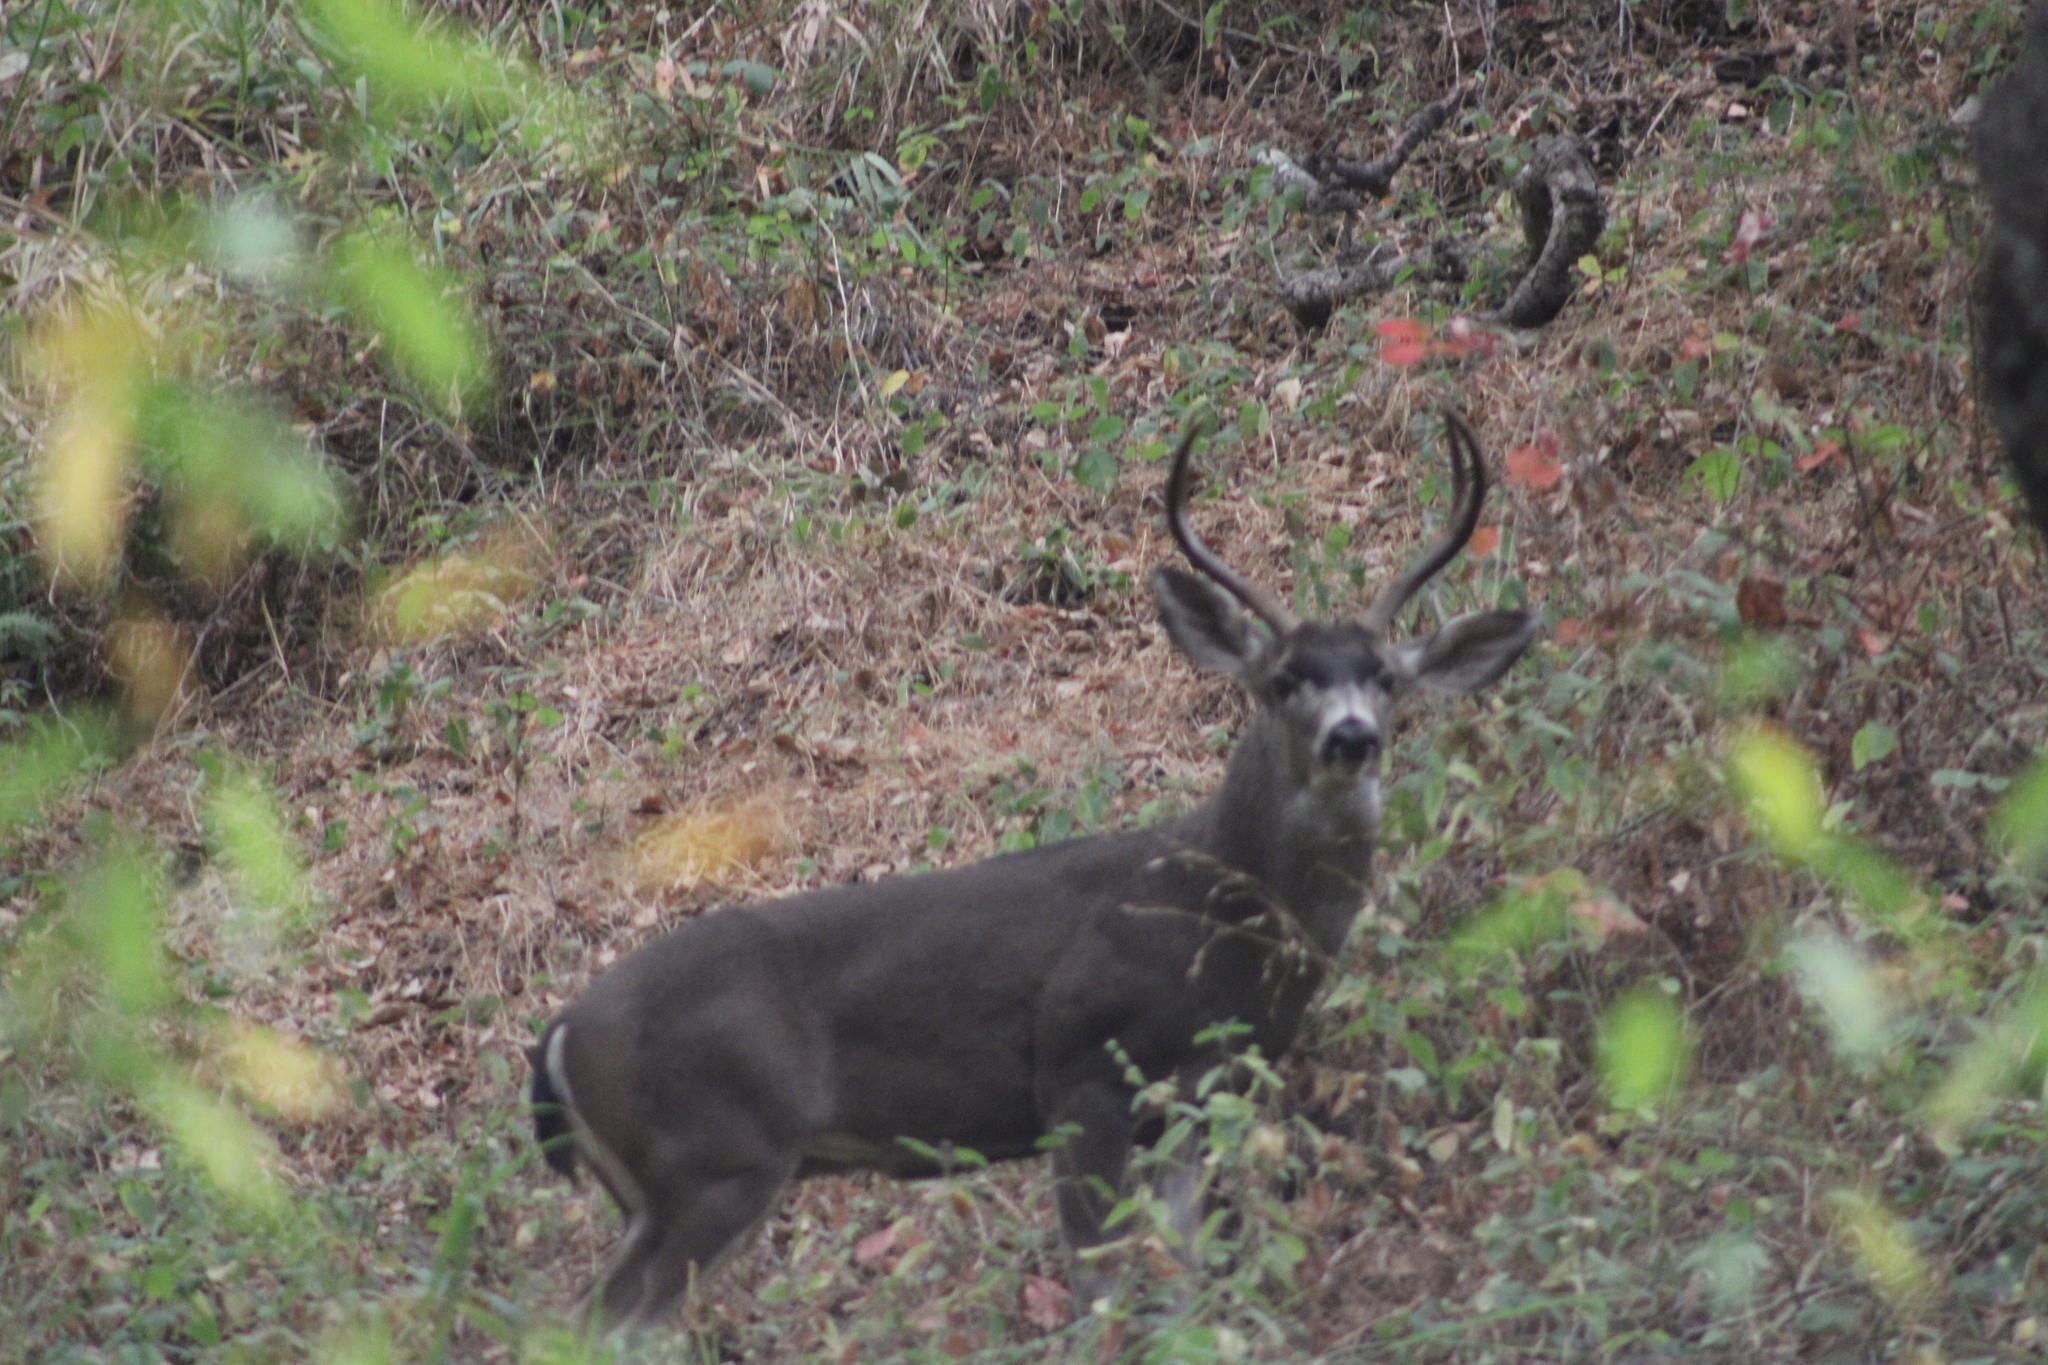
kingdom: Animalia
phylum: Chordata
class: Mammalia
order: Artiodactyla
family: Cervidae
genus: Odocoileus
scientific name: Odocoileus hemionus
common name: Mule deer
